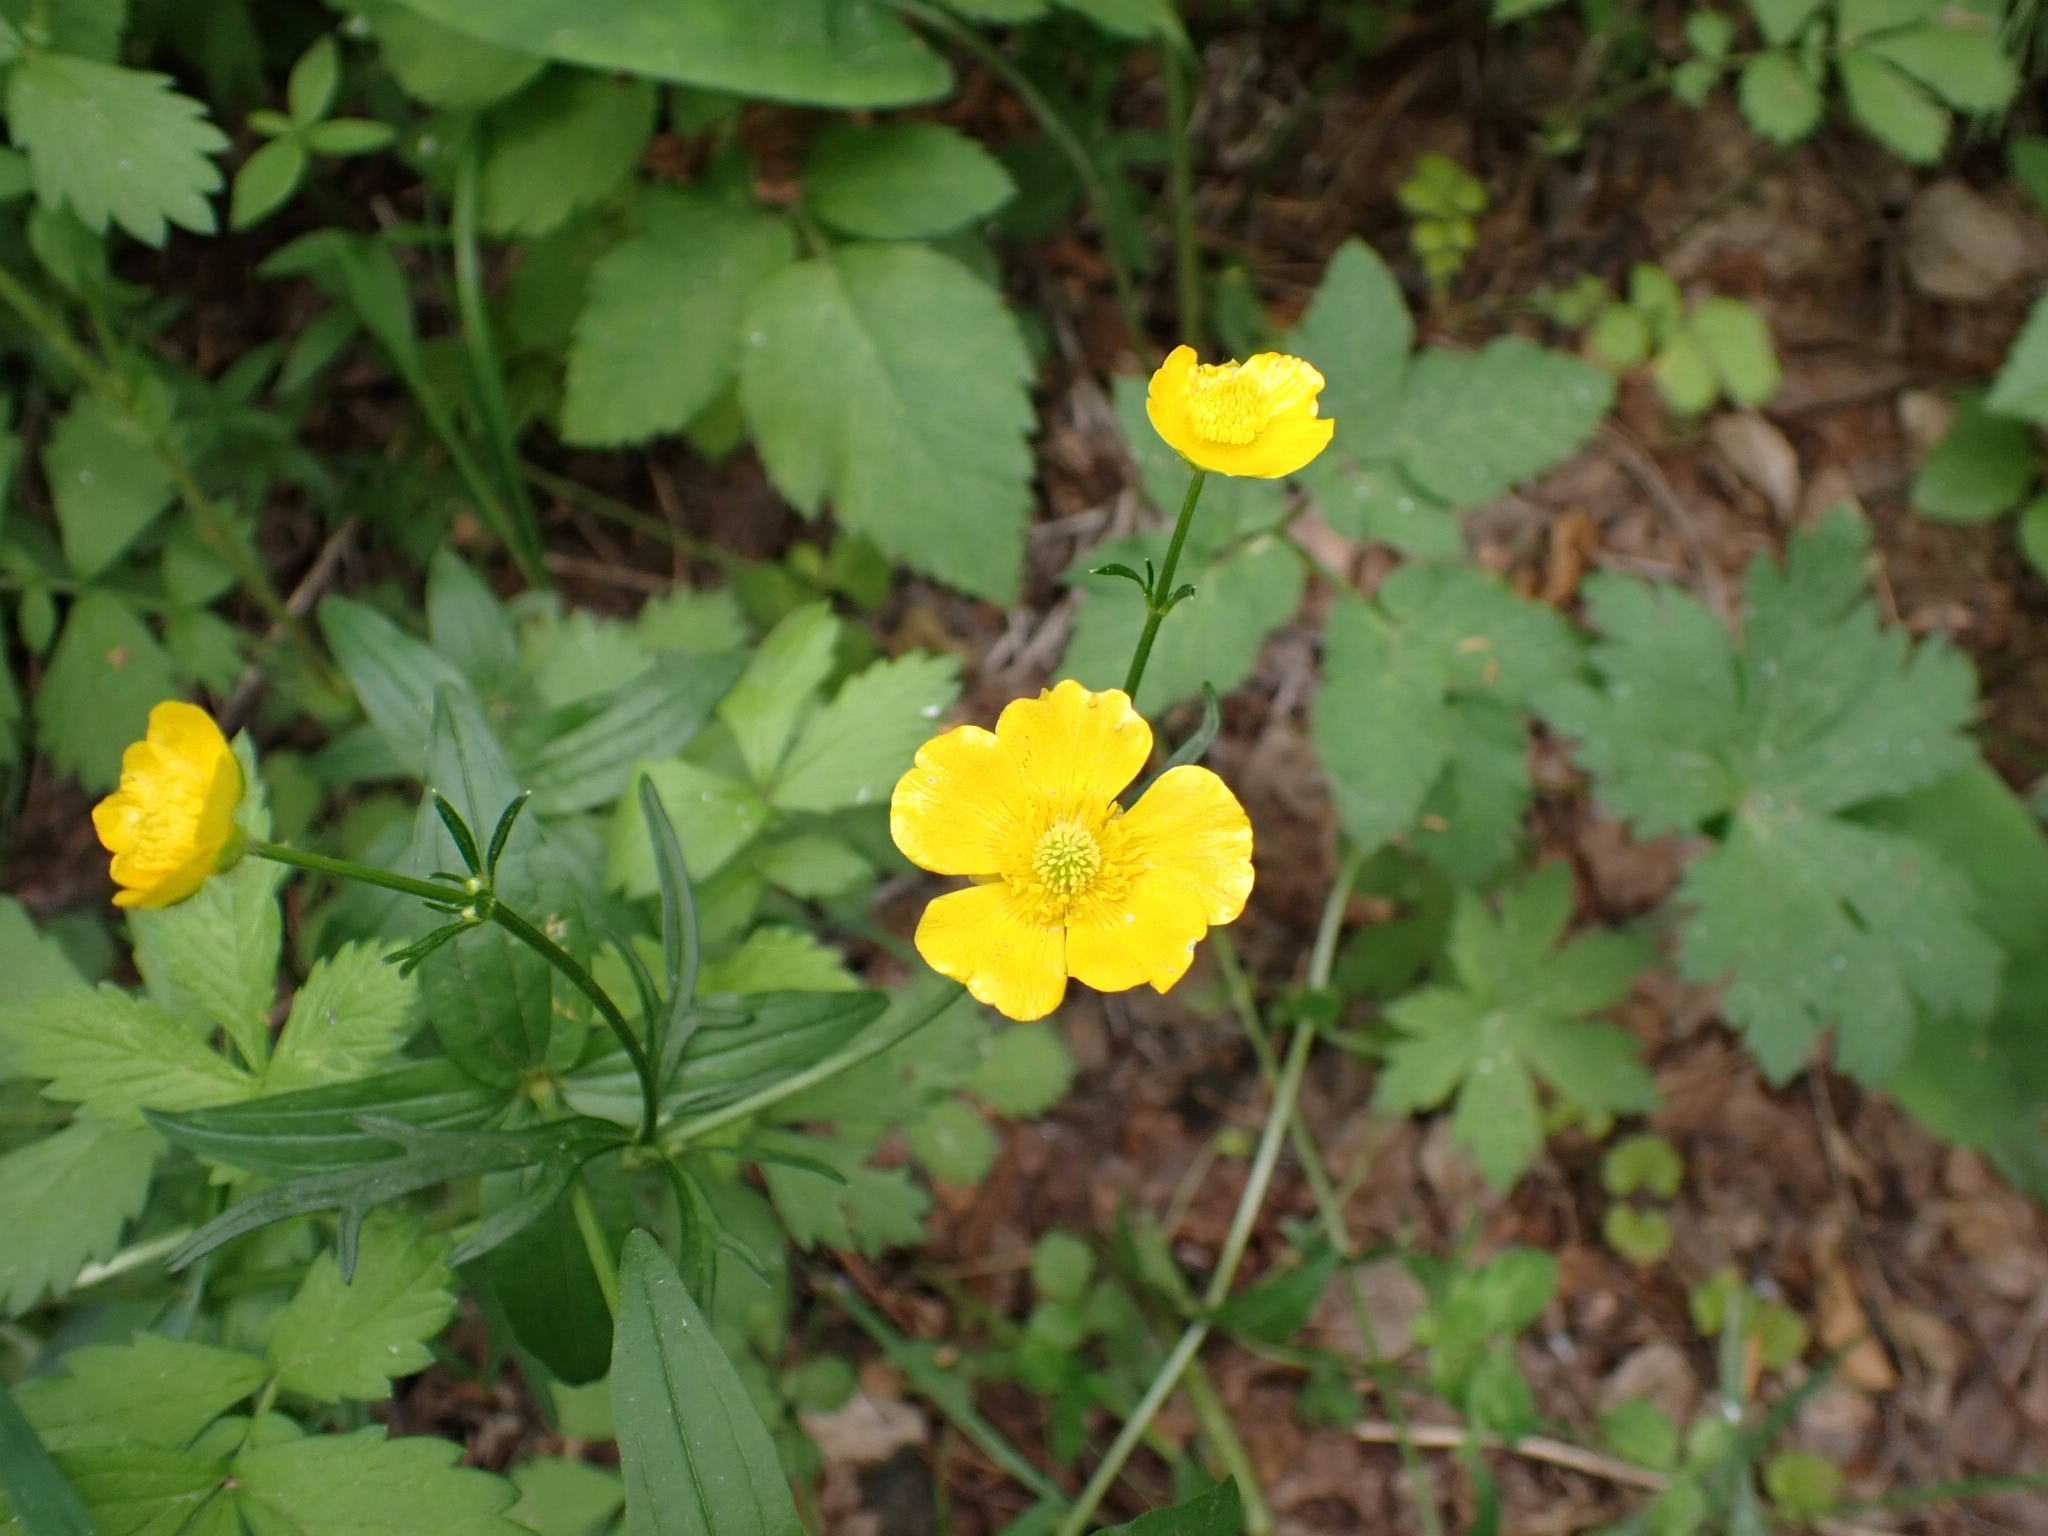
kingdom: Plantae
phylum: Tracheophyta
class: Magnoliopsida
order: Ranunculales
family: Ranunculaceae
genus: Ranunculus
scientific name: Ranunculus polyanthemos
